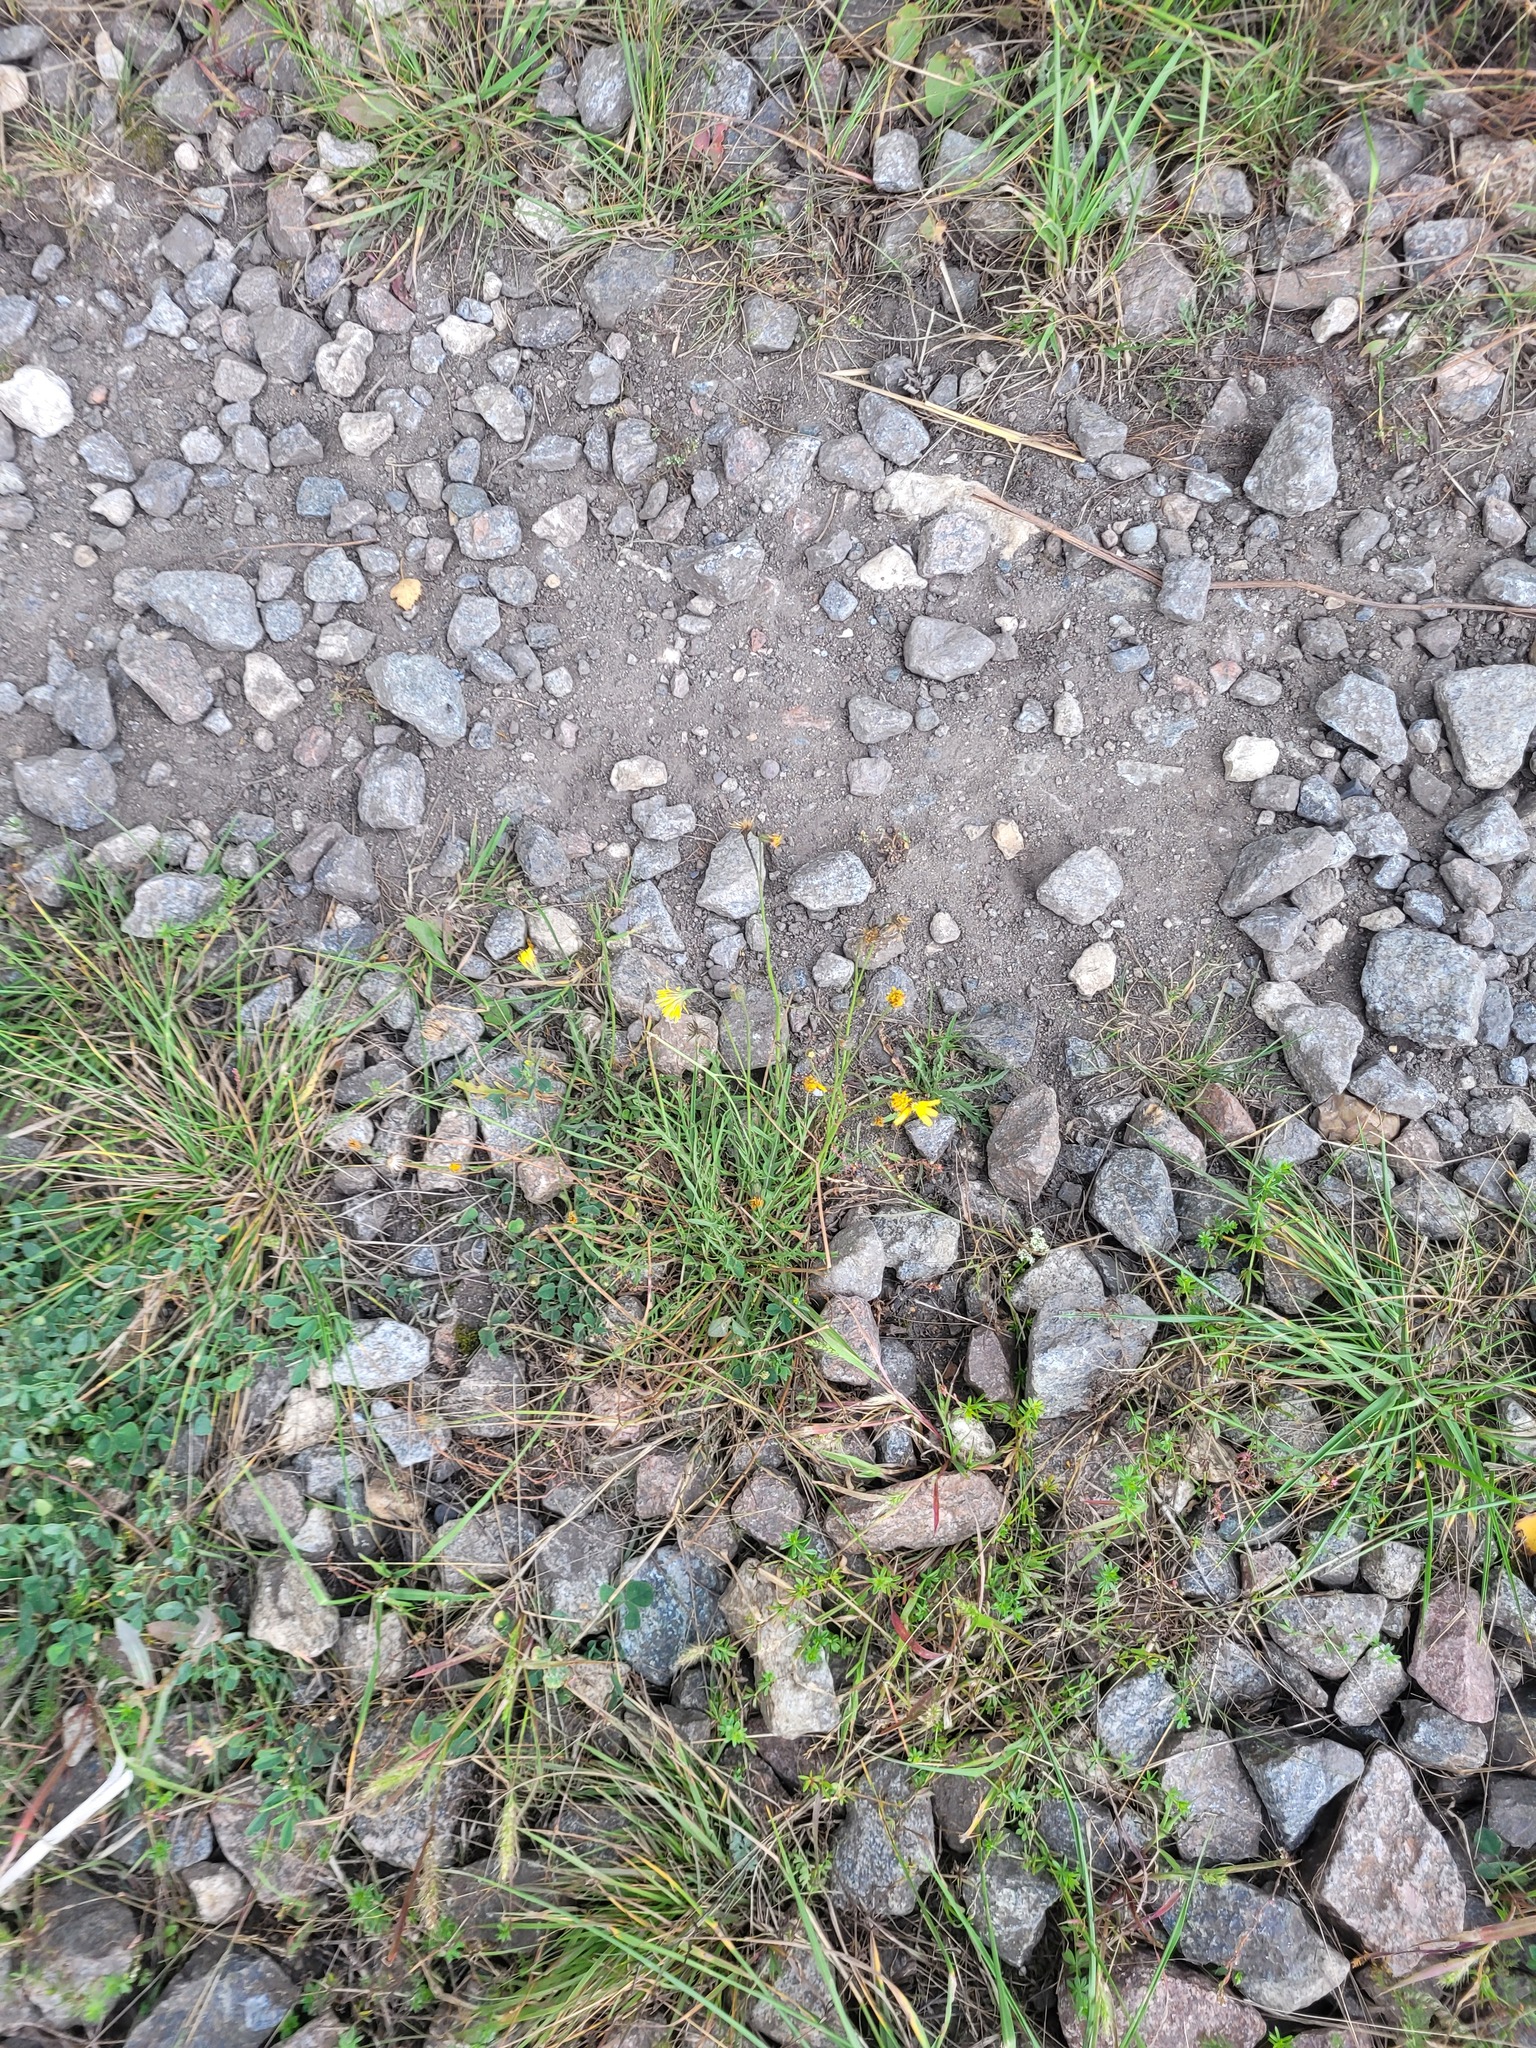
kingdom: Plantae
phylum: Tracheophyta
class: Magnoliopsida
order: Asterales
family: Asteraceae
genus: Scorzoneroides
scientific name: Scorzoneroides autumnalis
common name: Autumn hawkbit
